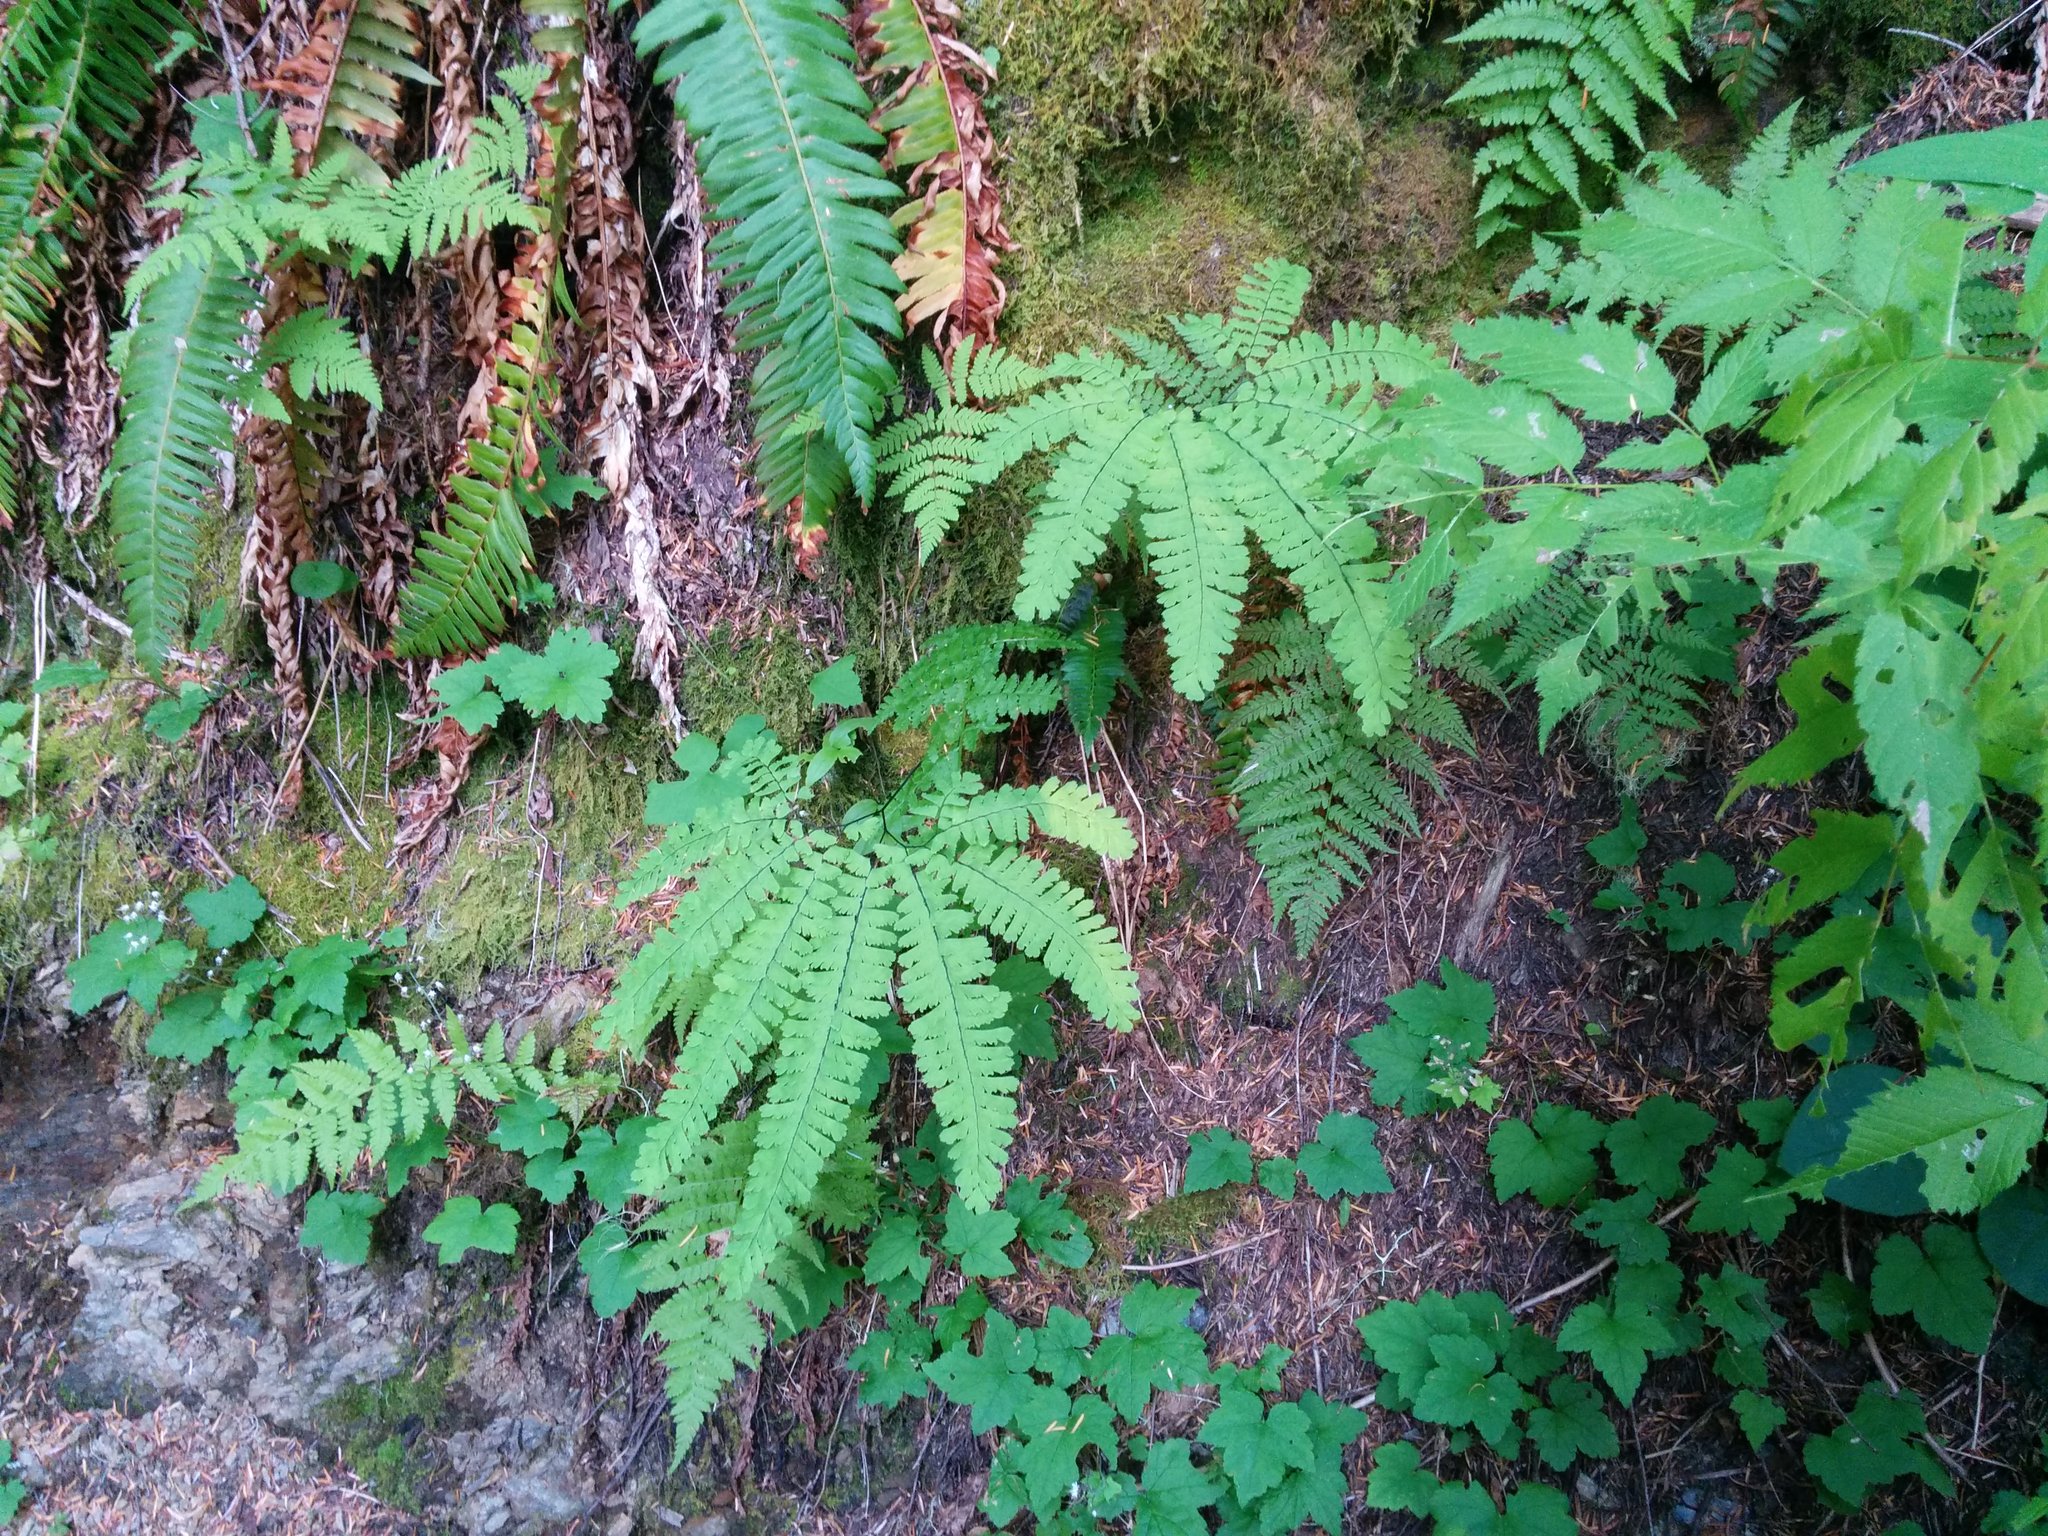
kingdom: Plantae
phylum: Tracheophyta
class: Polypodiopsida
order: Polypodiales
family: Pteridaceae
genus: Adiantum
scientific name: Adiantum aleuticum
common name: Aleutian maidenhair fern
